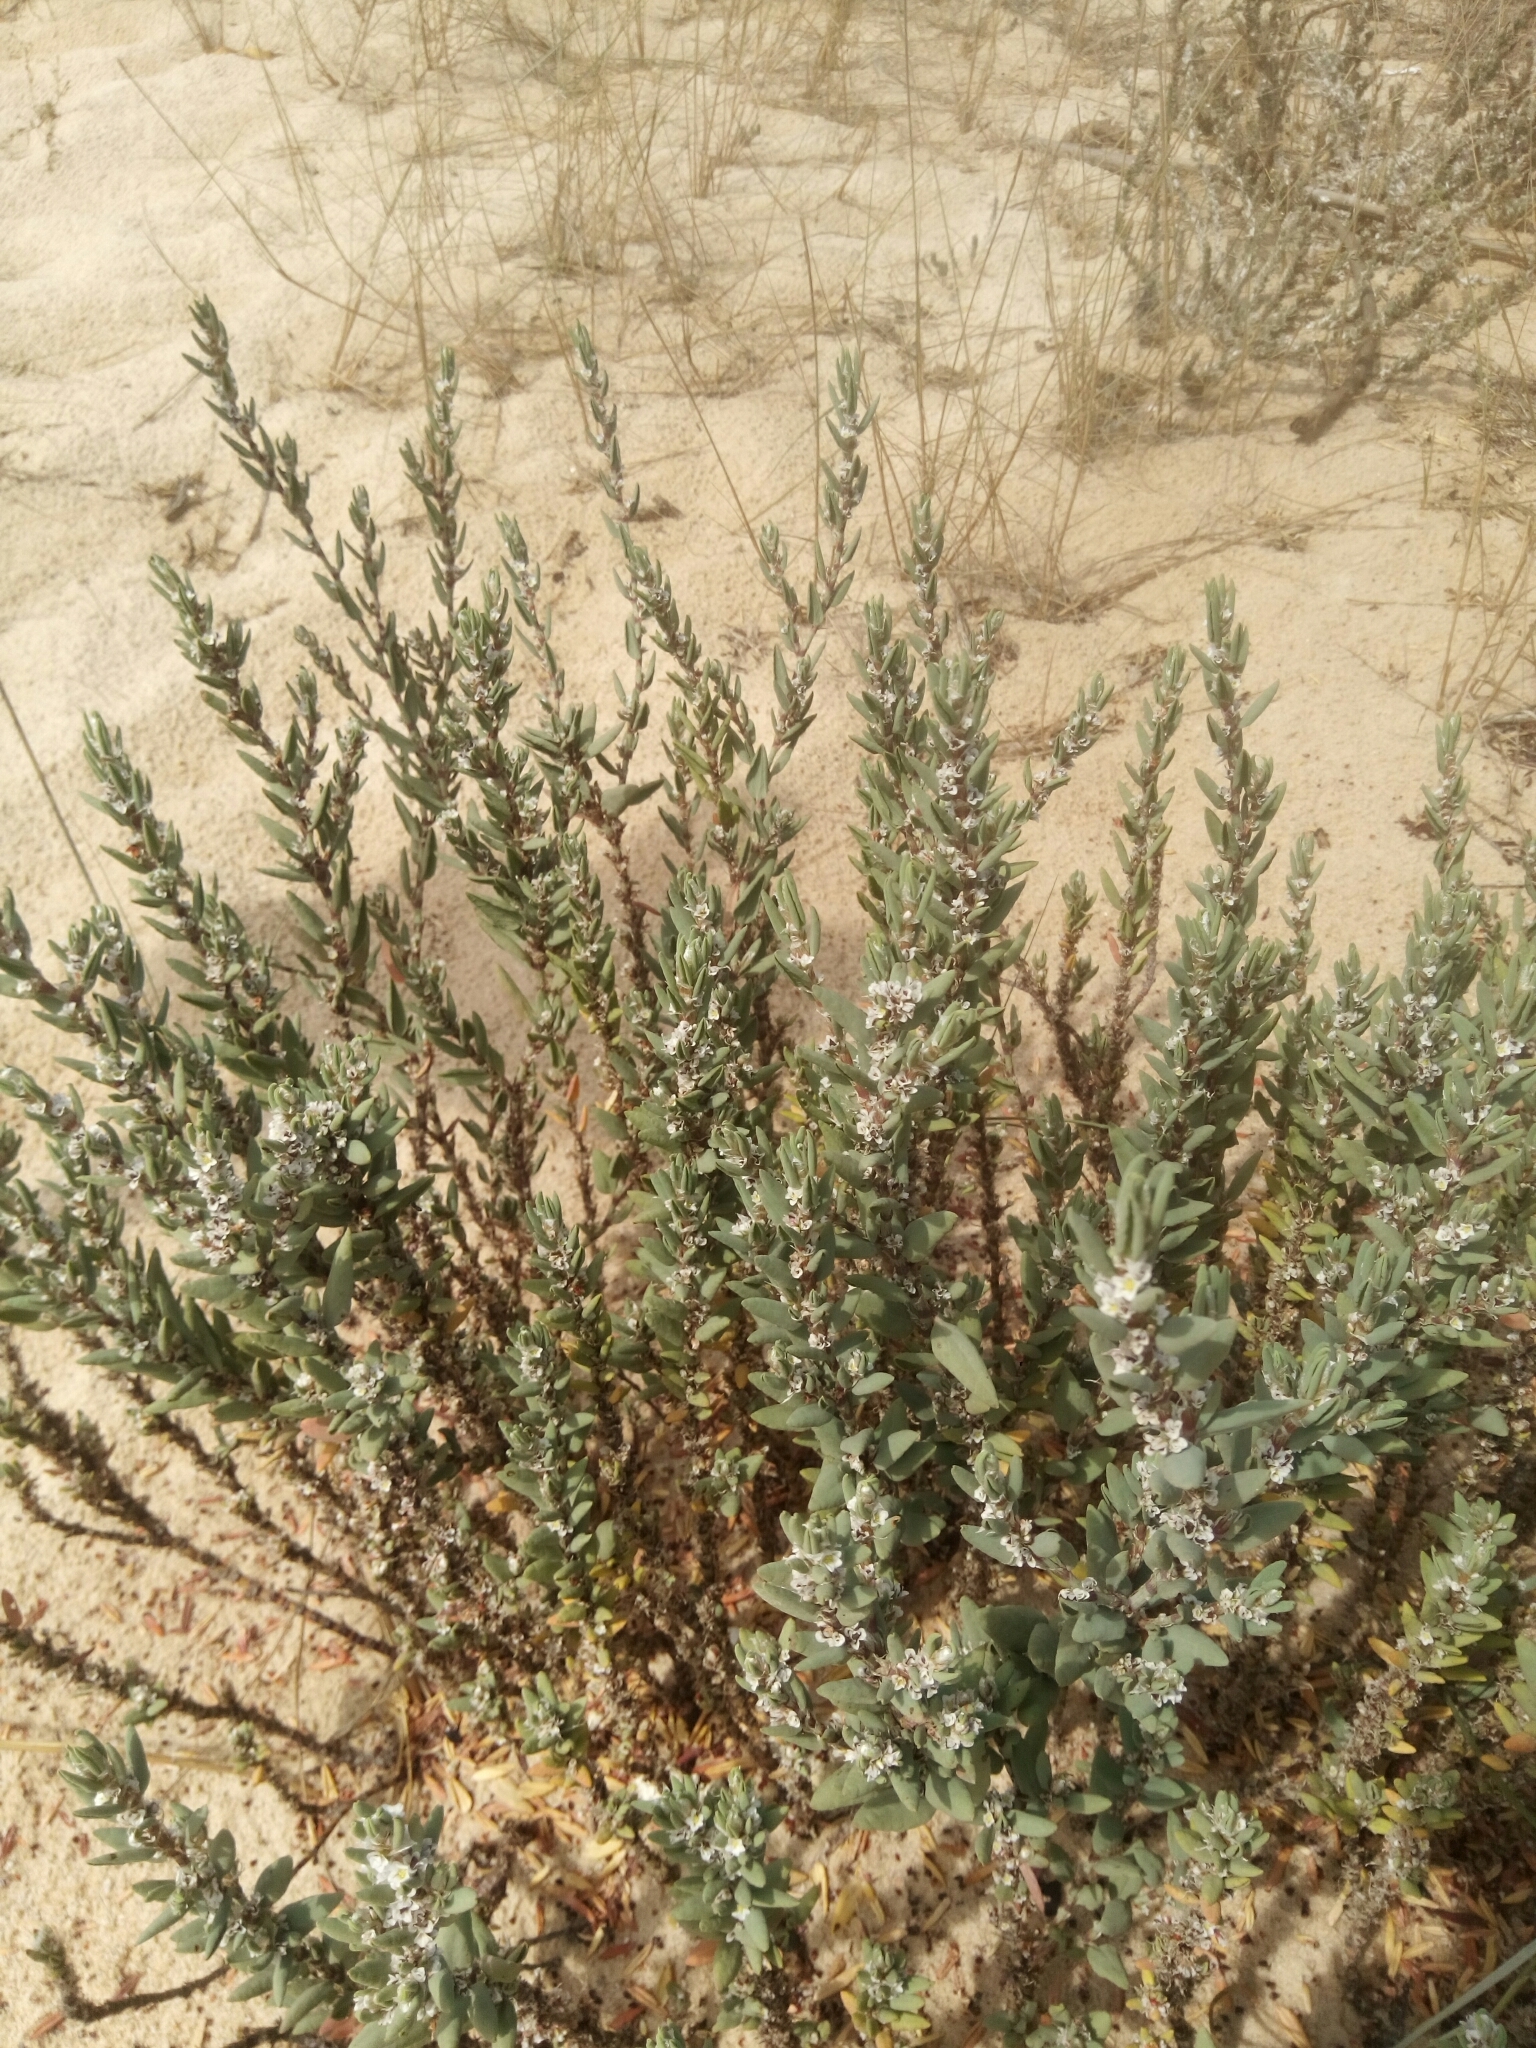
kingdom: Plantae
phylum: Tracheophyta
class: Magnoliopsida
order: Caryophyllales
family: Polygonaceae
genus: Polygonum
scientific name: Polygonum maritimum
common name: Sea knotgrass
